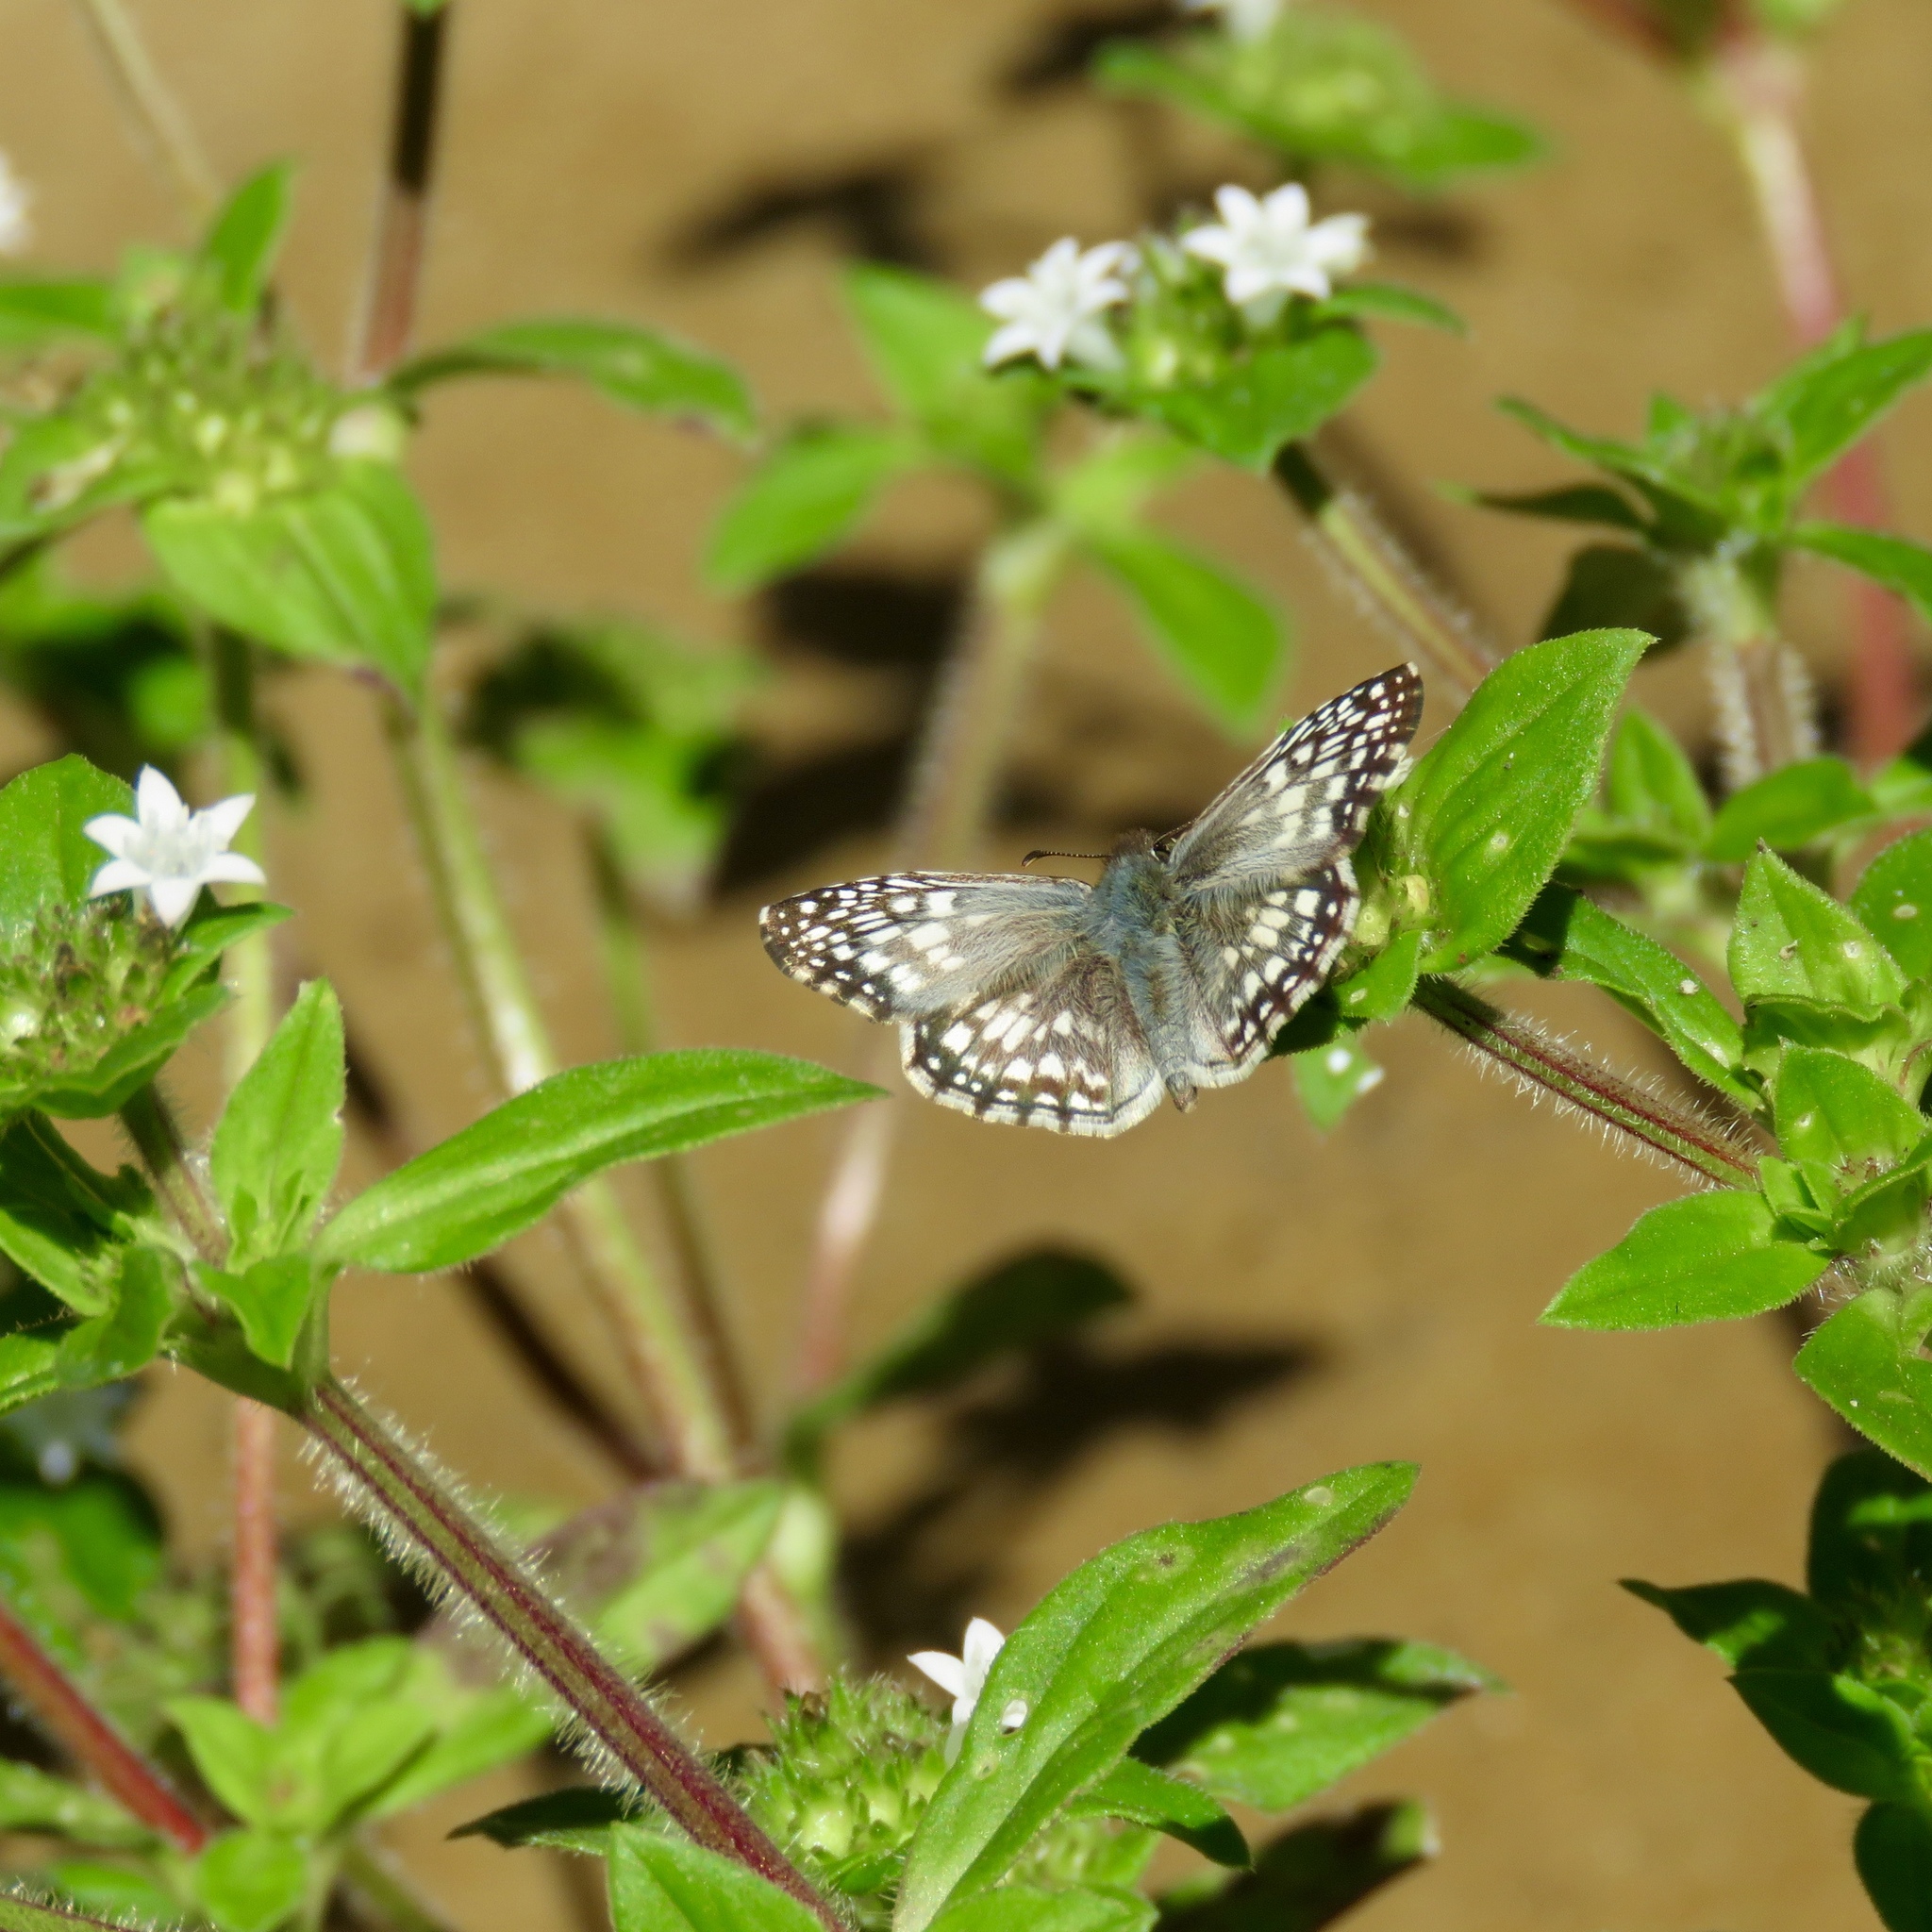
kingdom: Animalia
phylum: Arthropoda
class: Insecta
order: Lepidoptera
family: Hesperiidae
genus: Pyrgus
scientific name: Pyrgus oileus
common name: Tropical checkered-skipper
